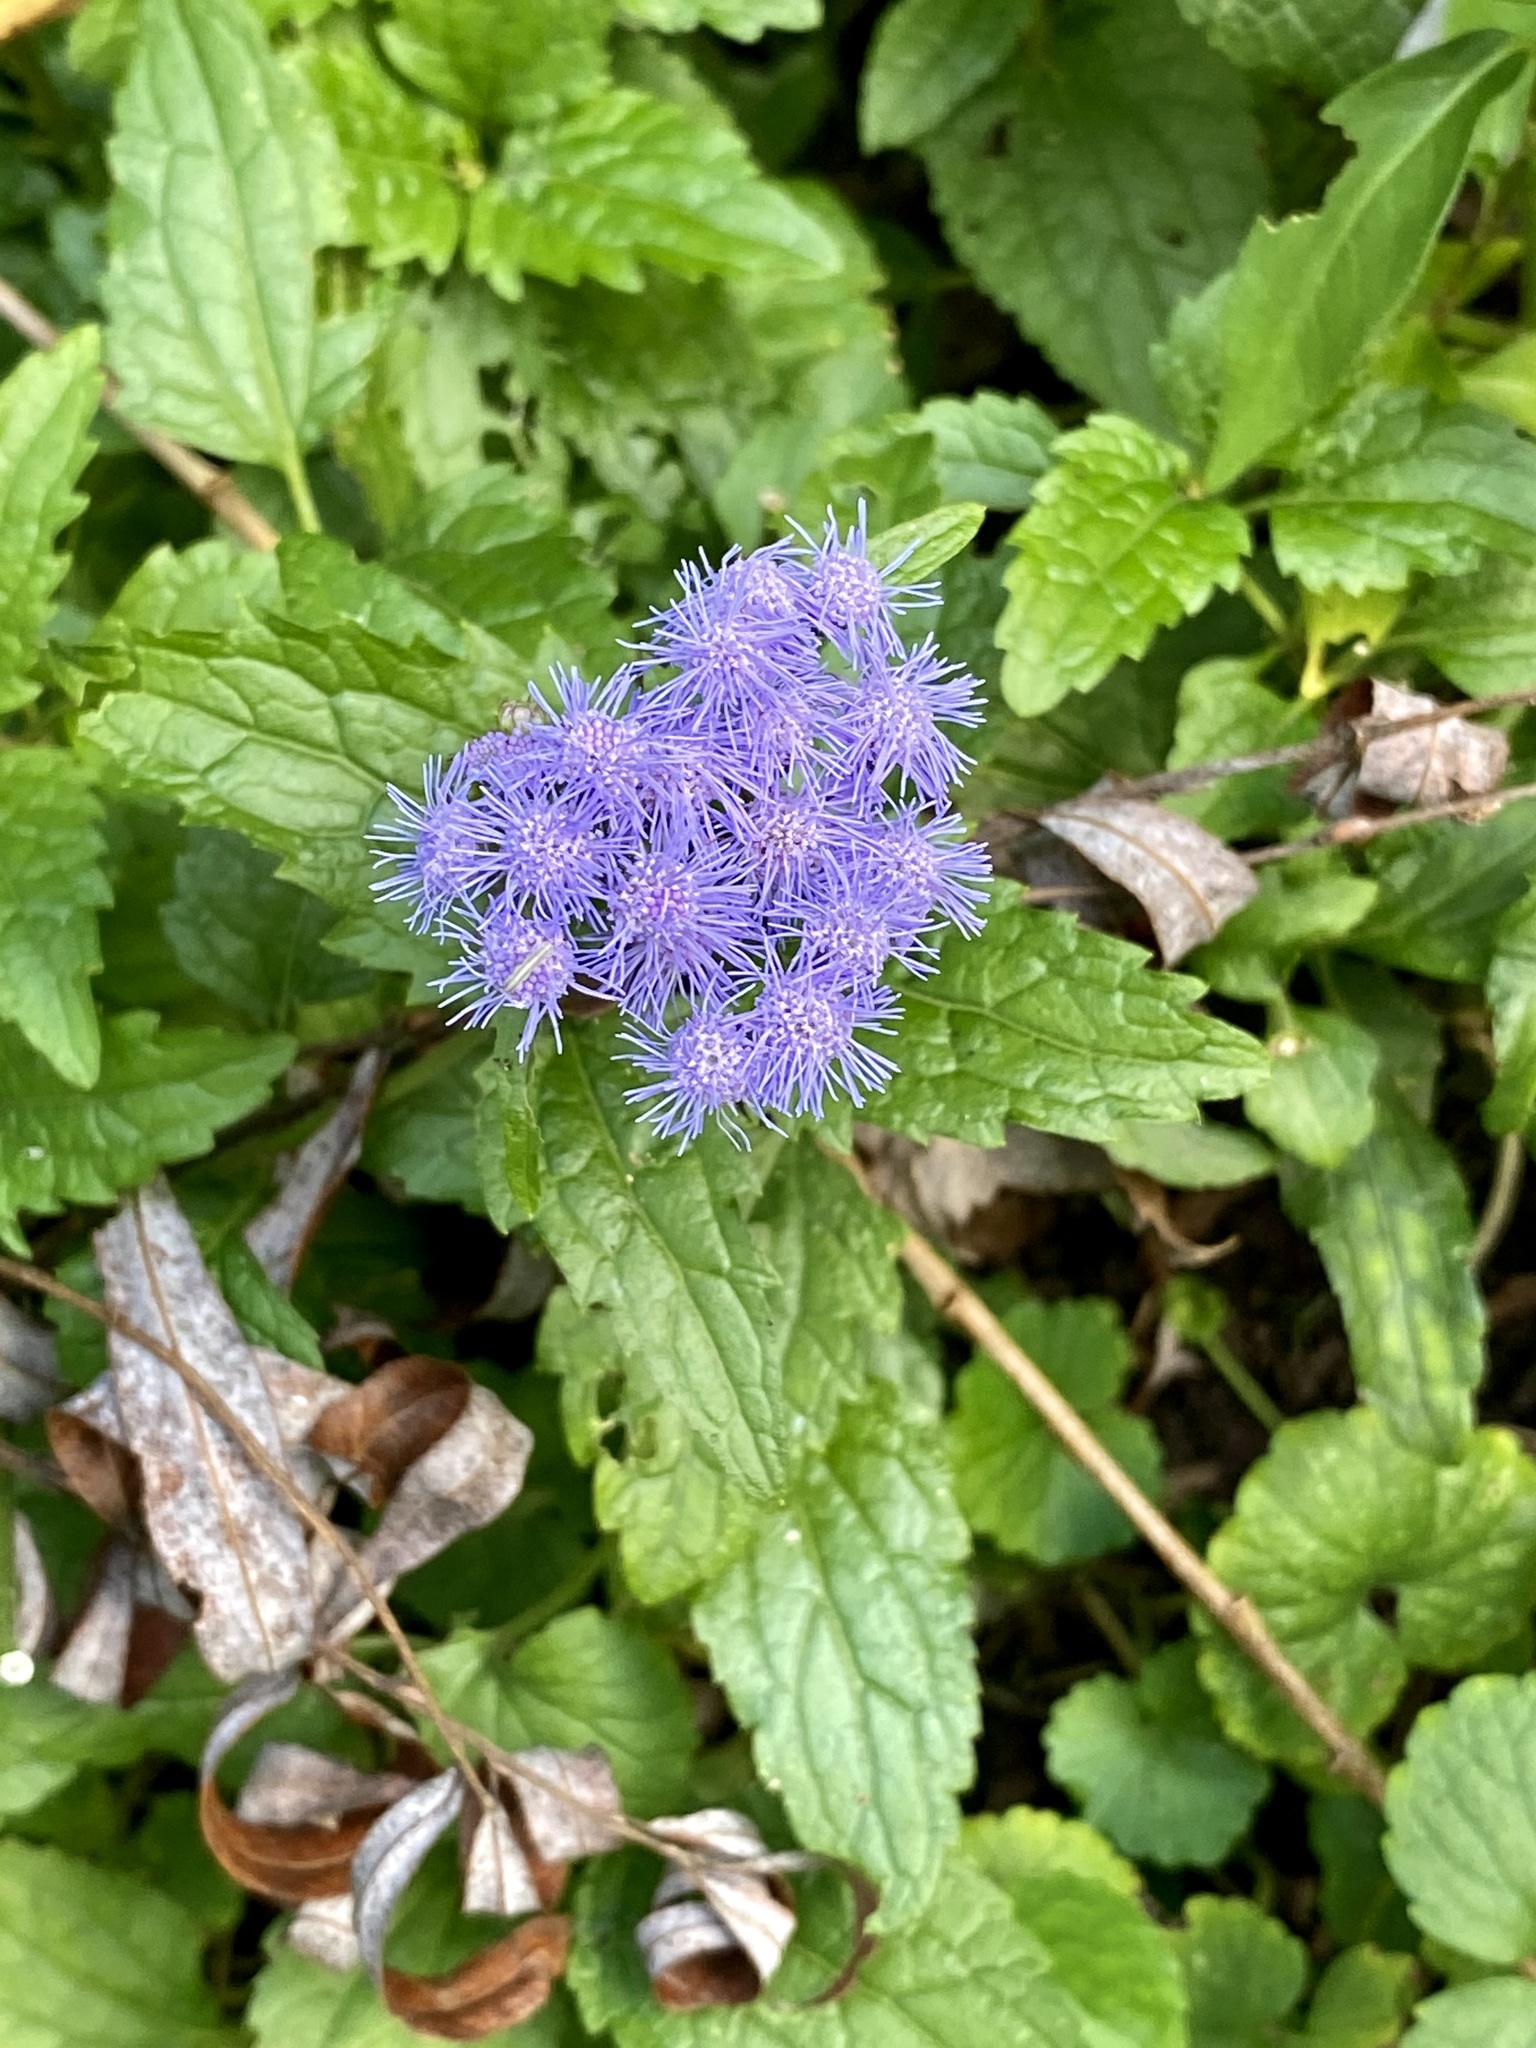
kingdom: Plantae
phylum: Tracheophyta
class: Magnoliopsida
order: Asterales
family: Asteraceae
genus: Conoclinium
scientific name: Conoclinium coelestinum
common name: Blue mistflower
